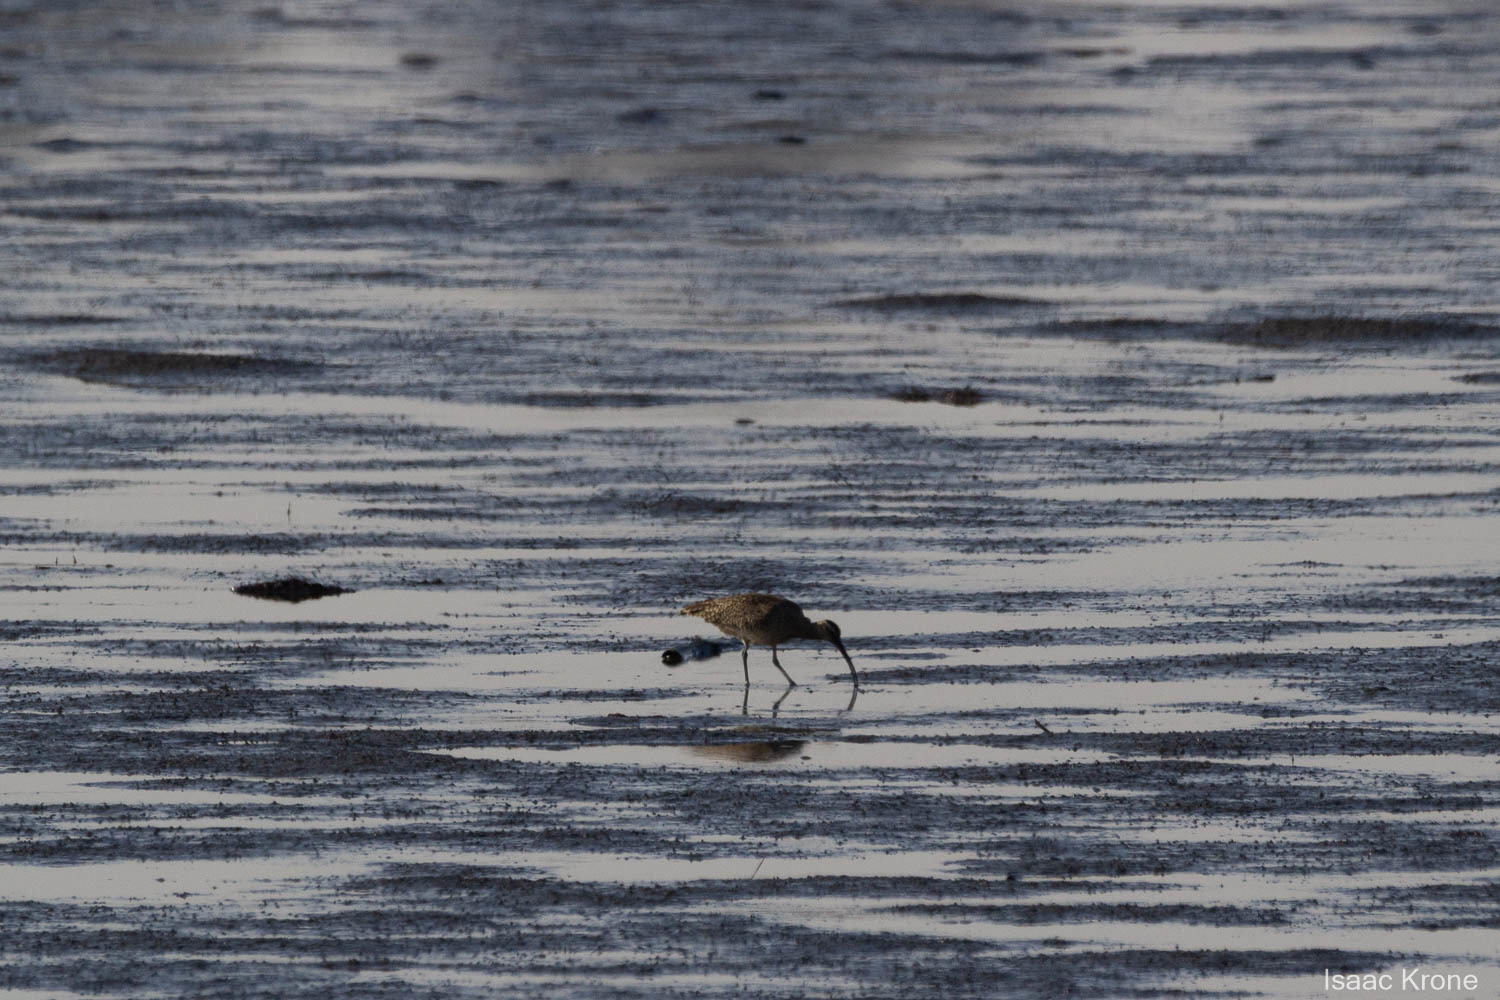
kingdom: Animalia
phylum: Chordata
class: Aves
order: Charadriiformes
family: Scolopacidae
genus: Numenius
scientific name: Numenius phaeopus
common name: Whimbrel
